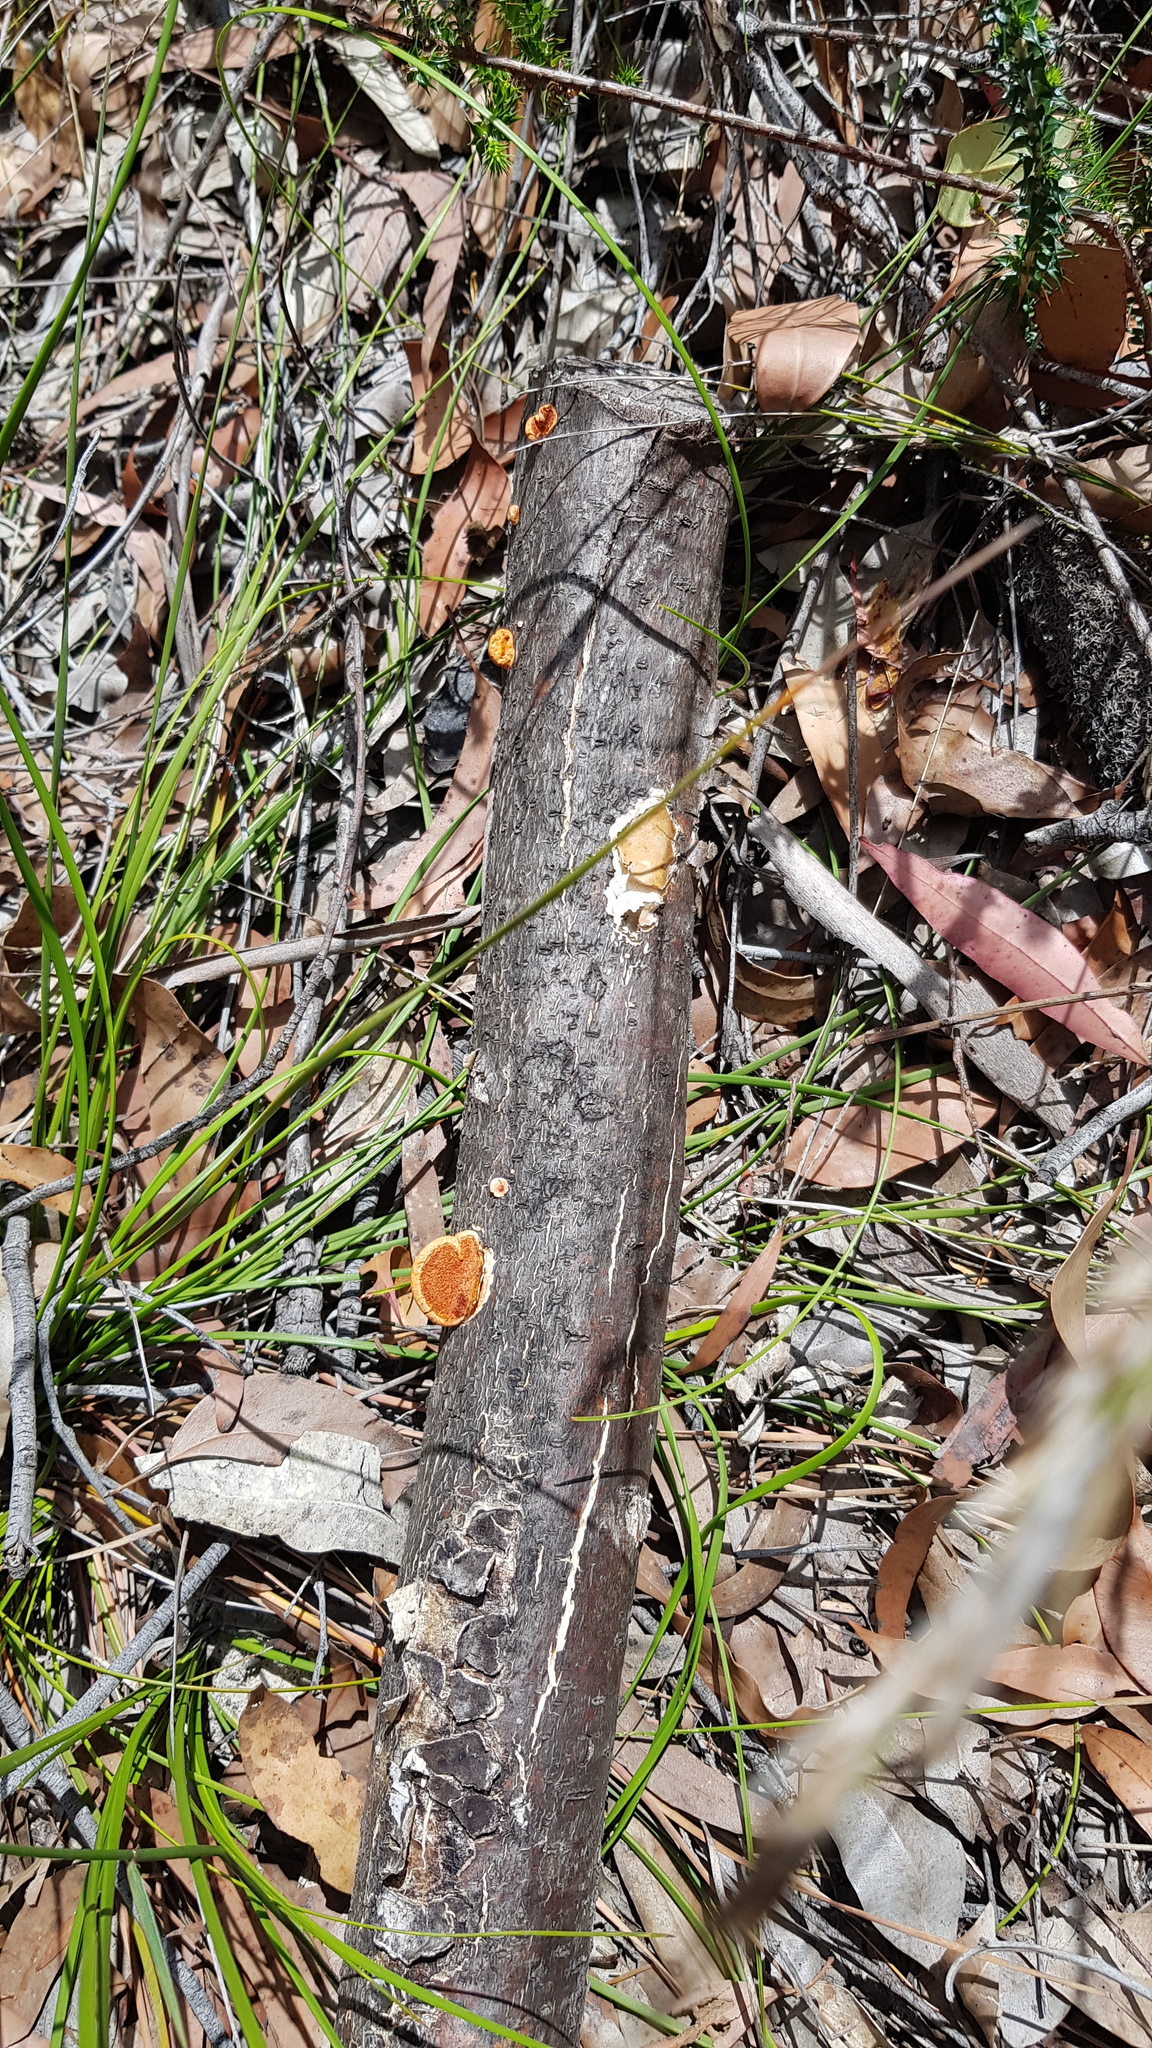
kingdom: Fungi
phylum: Basidiomycota
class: Agaricomycetes
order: Polyporales
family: Polyporaceae
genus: Trametes
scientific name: Trametes coccinea
